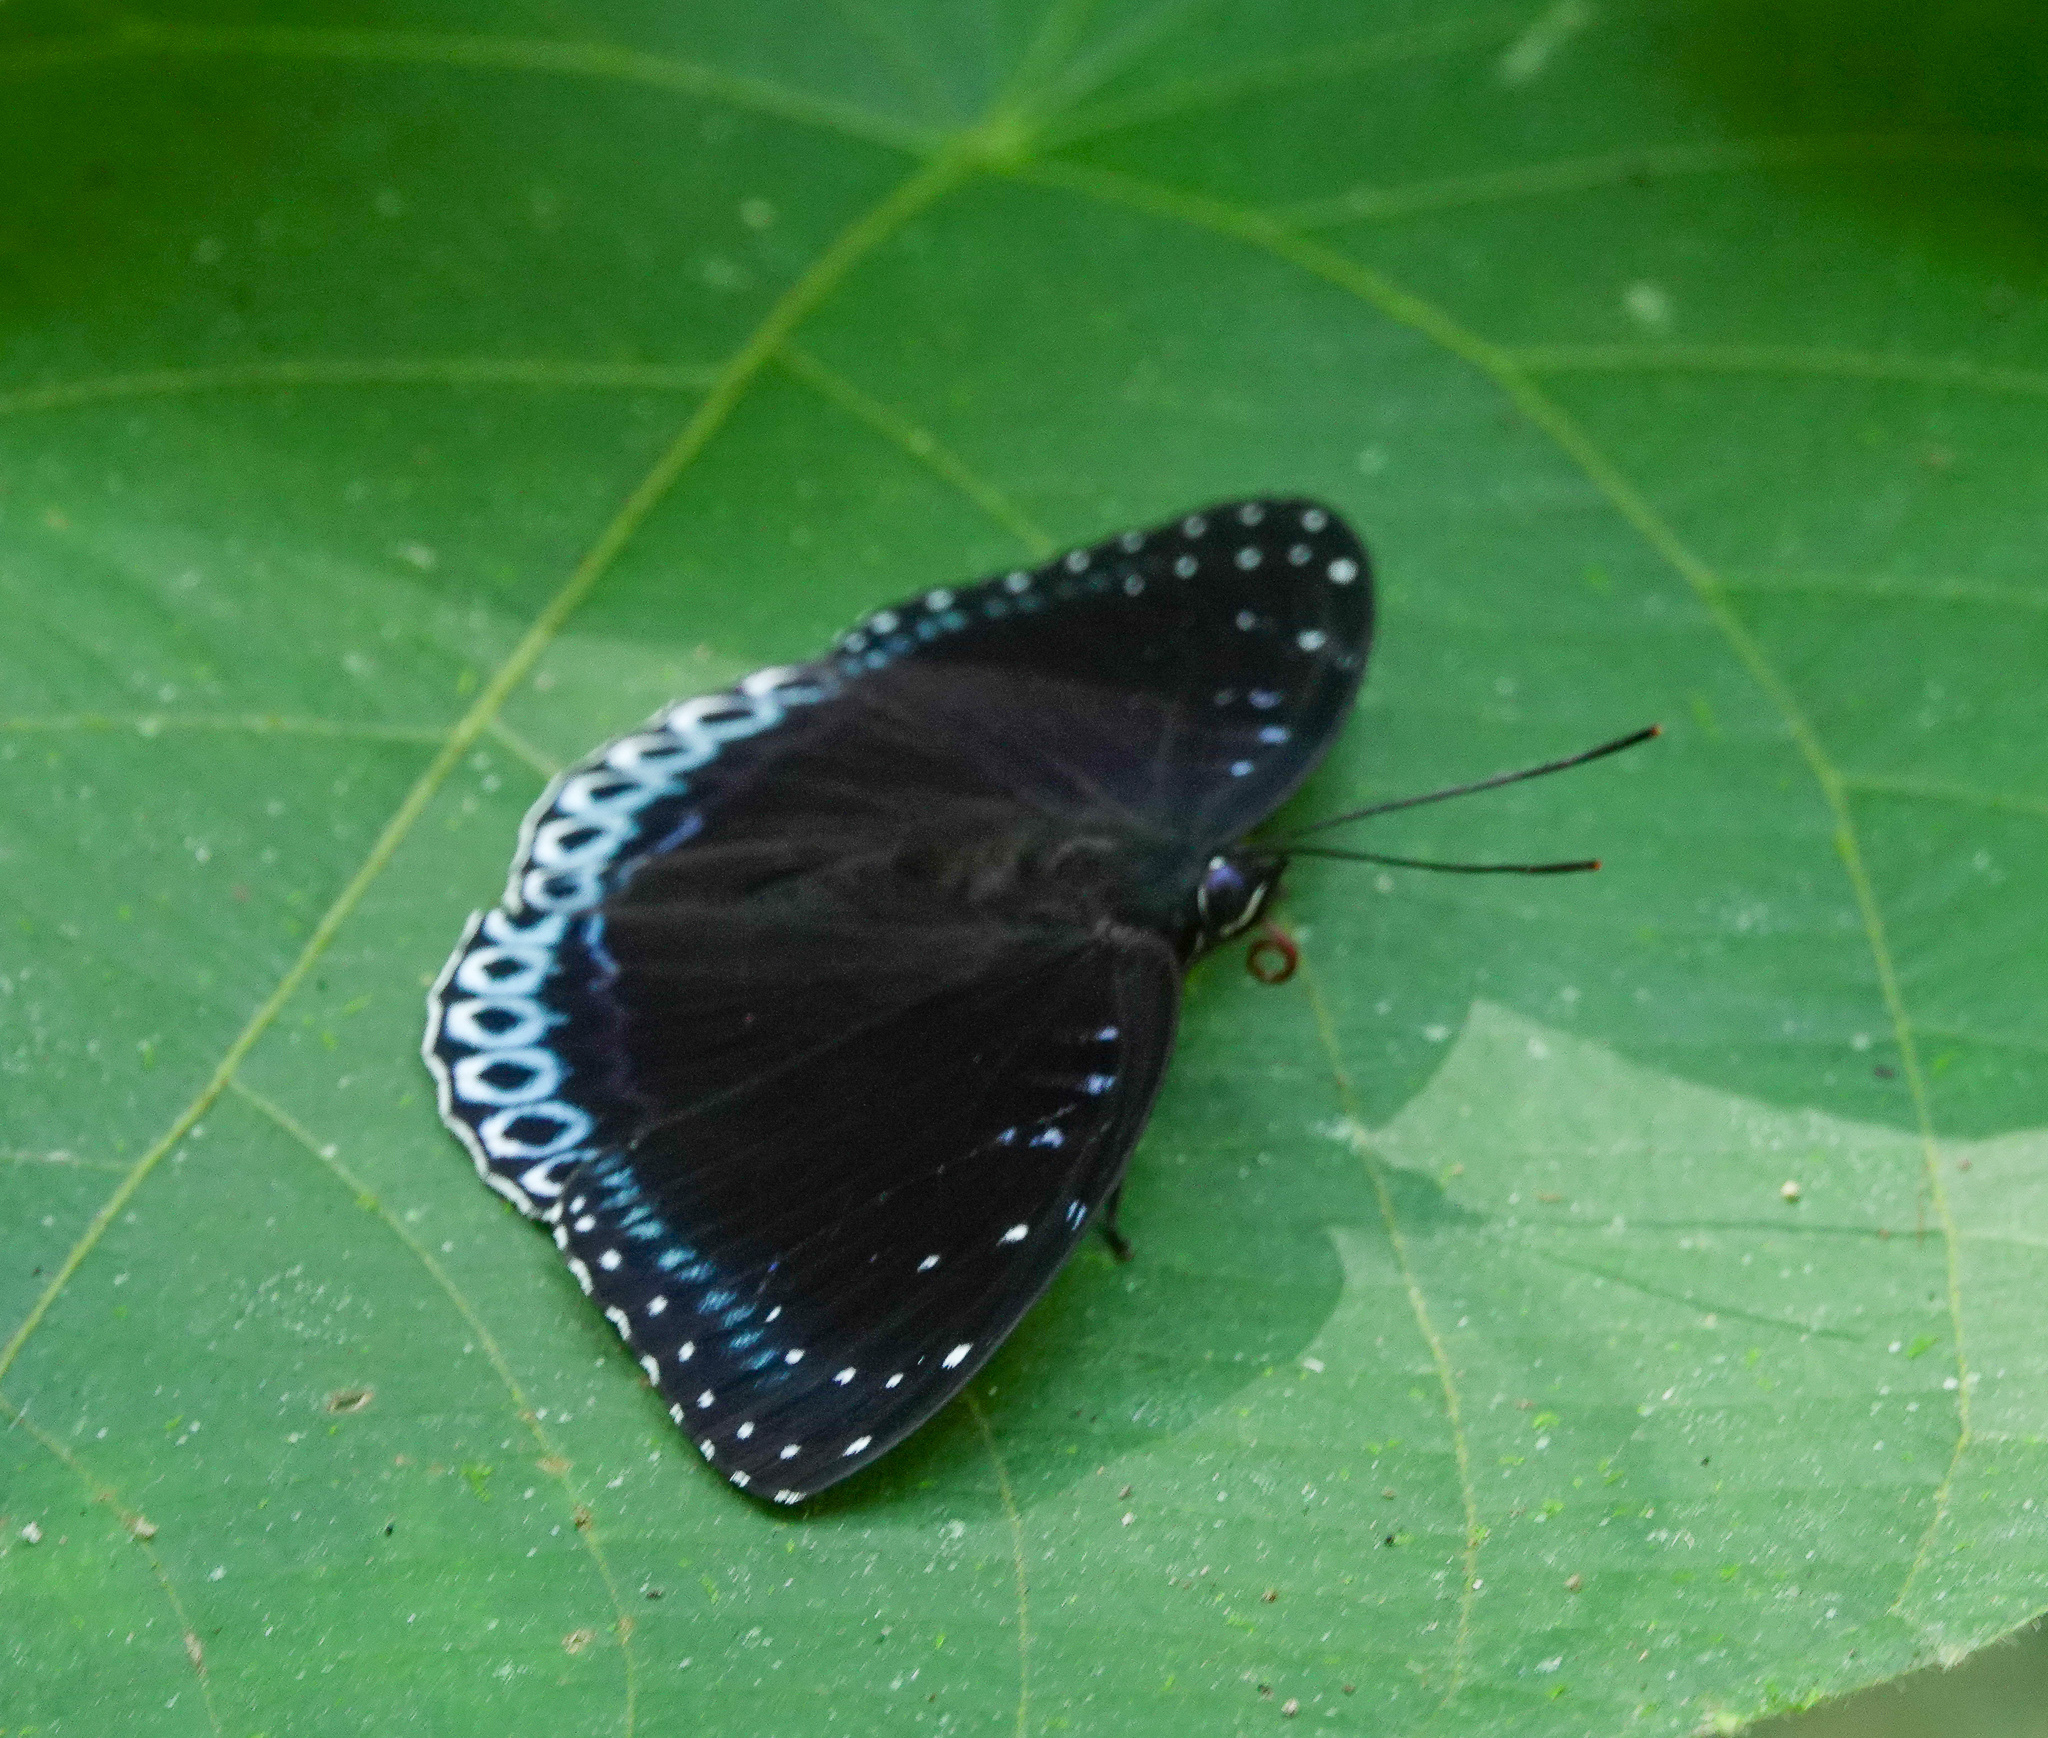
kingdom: Animalia
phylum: Arthropoda
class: Insecta
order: Lepidoptera
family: Nymphalidae
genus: Stibochiona
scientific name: Stibochiona nicea
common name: Popinjay
